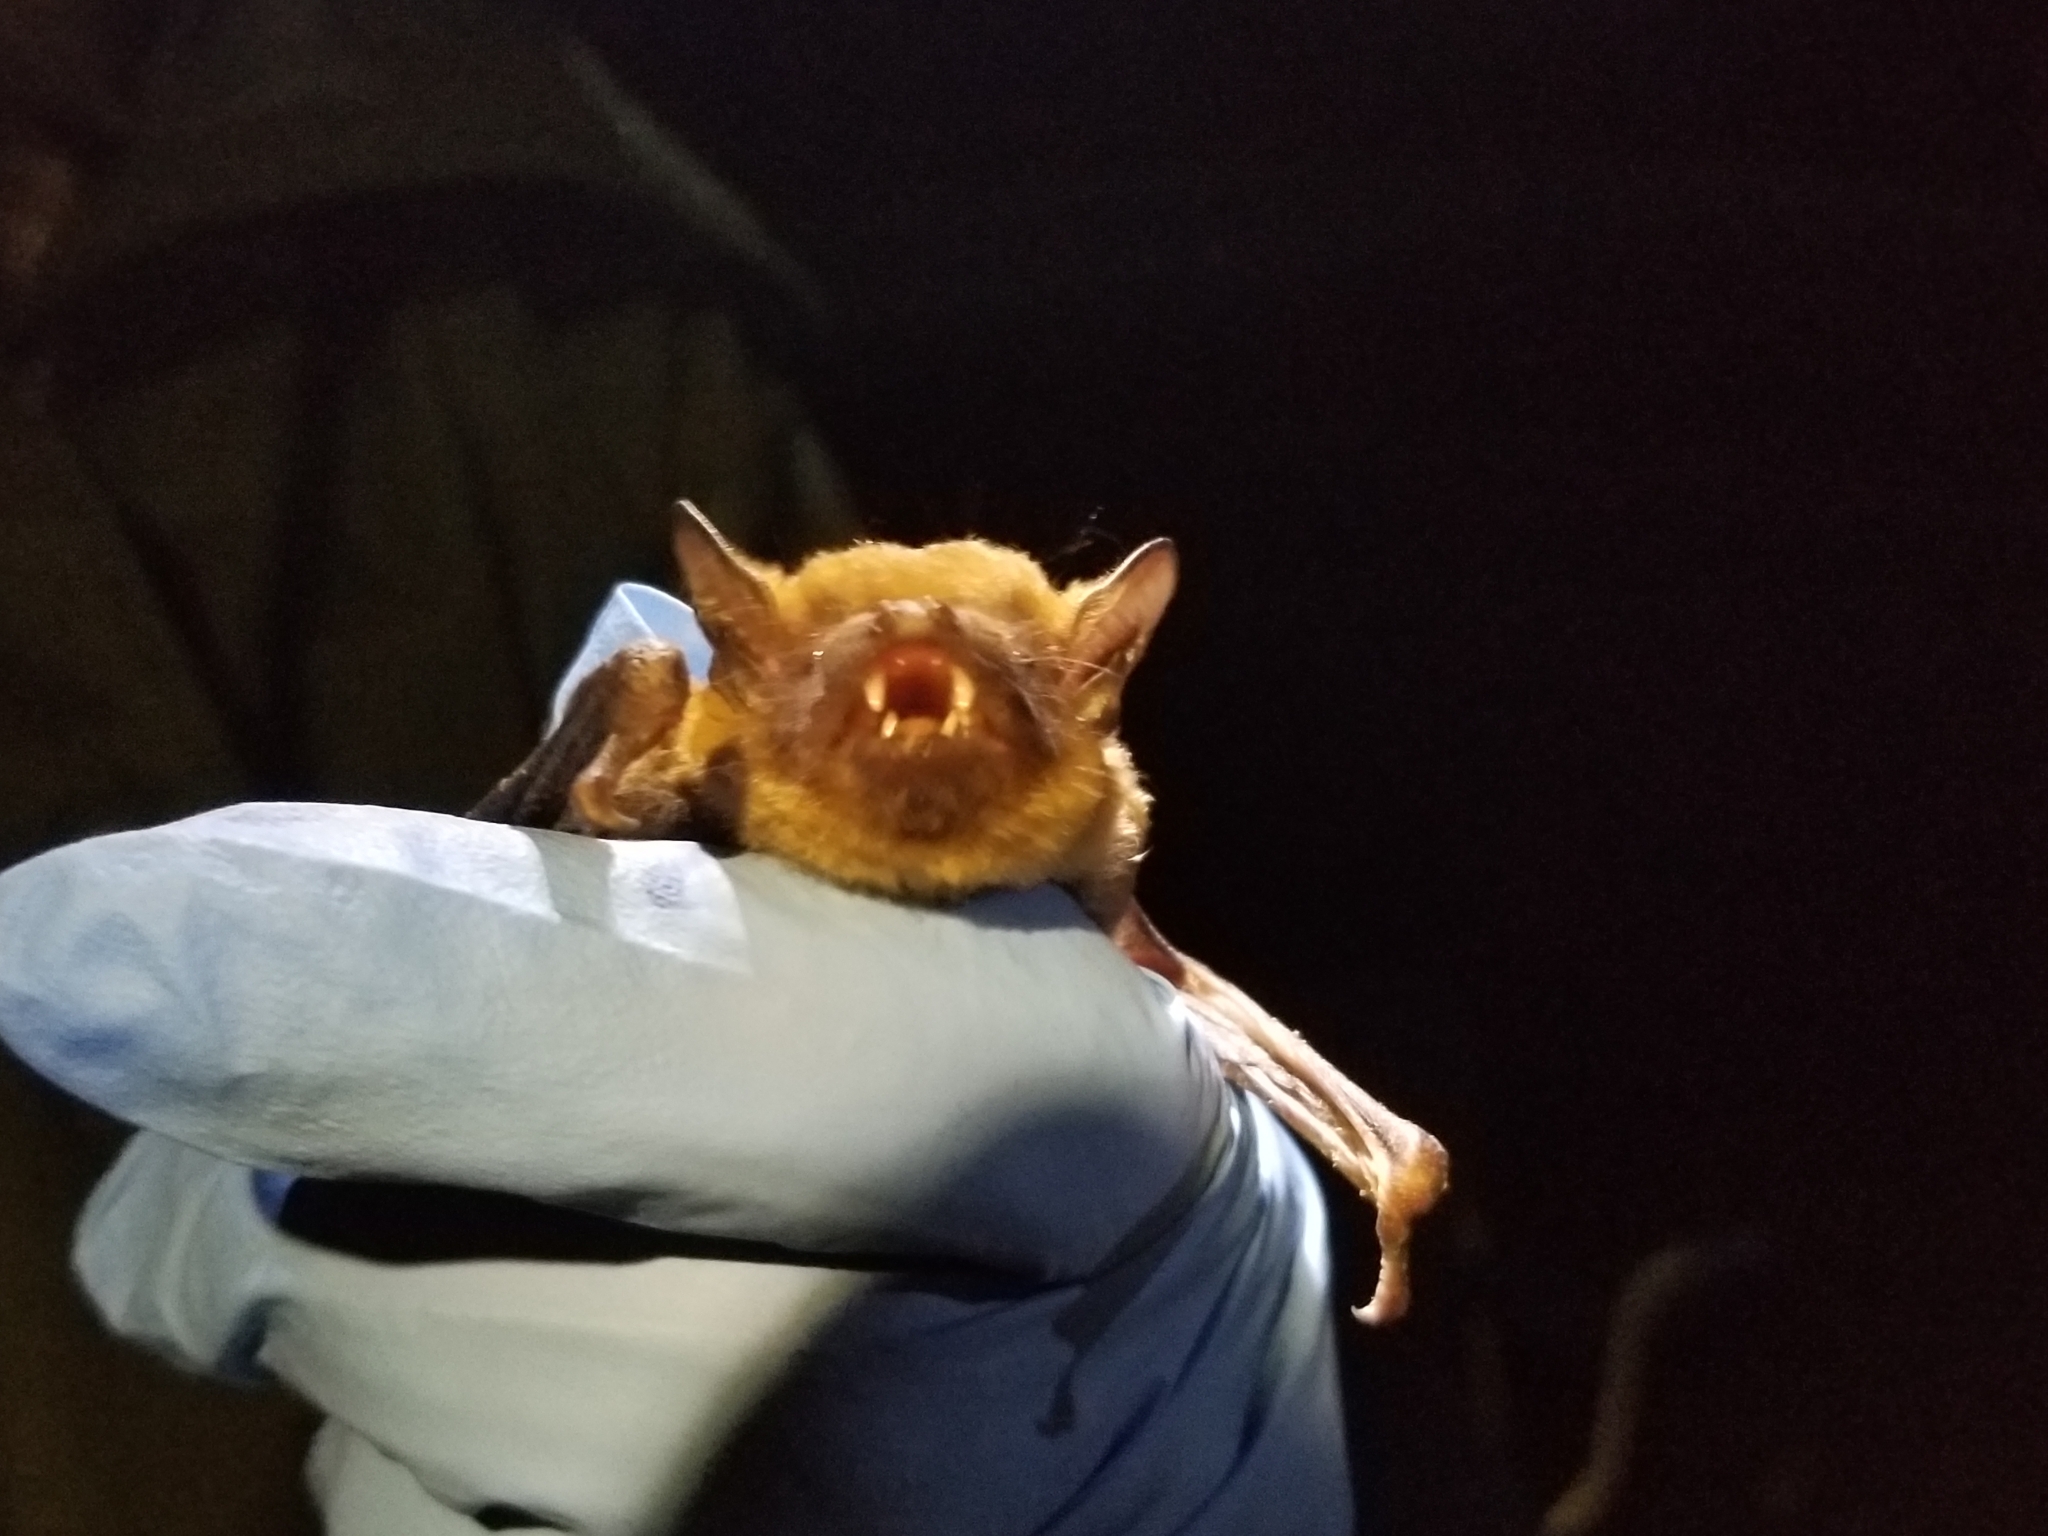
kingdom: Animalia
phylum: Chordata
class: Mammalia
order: Chiroptera
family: Vespertilionidae
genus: Eptesicus
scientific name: Eptesicus fuscus
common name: Big brown bat
